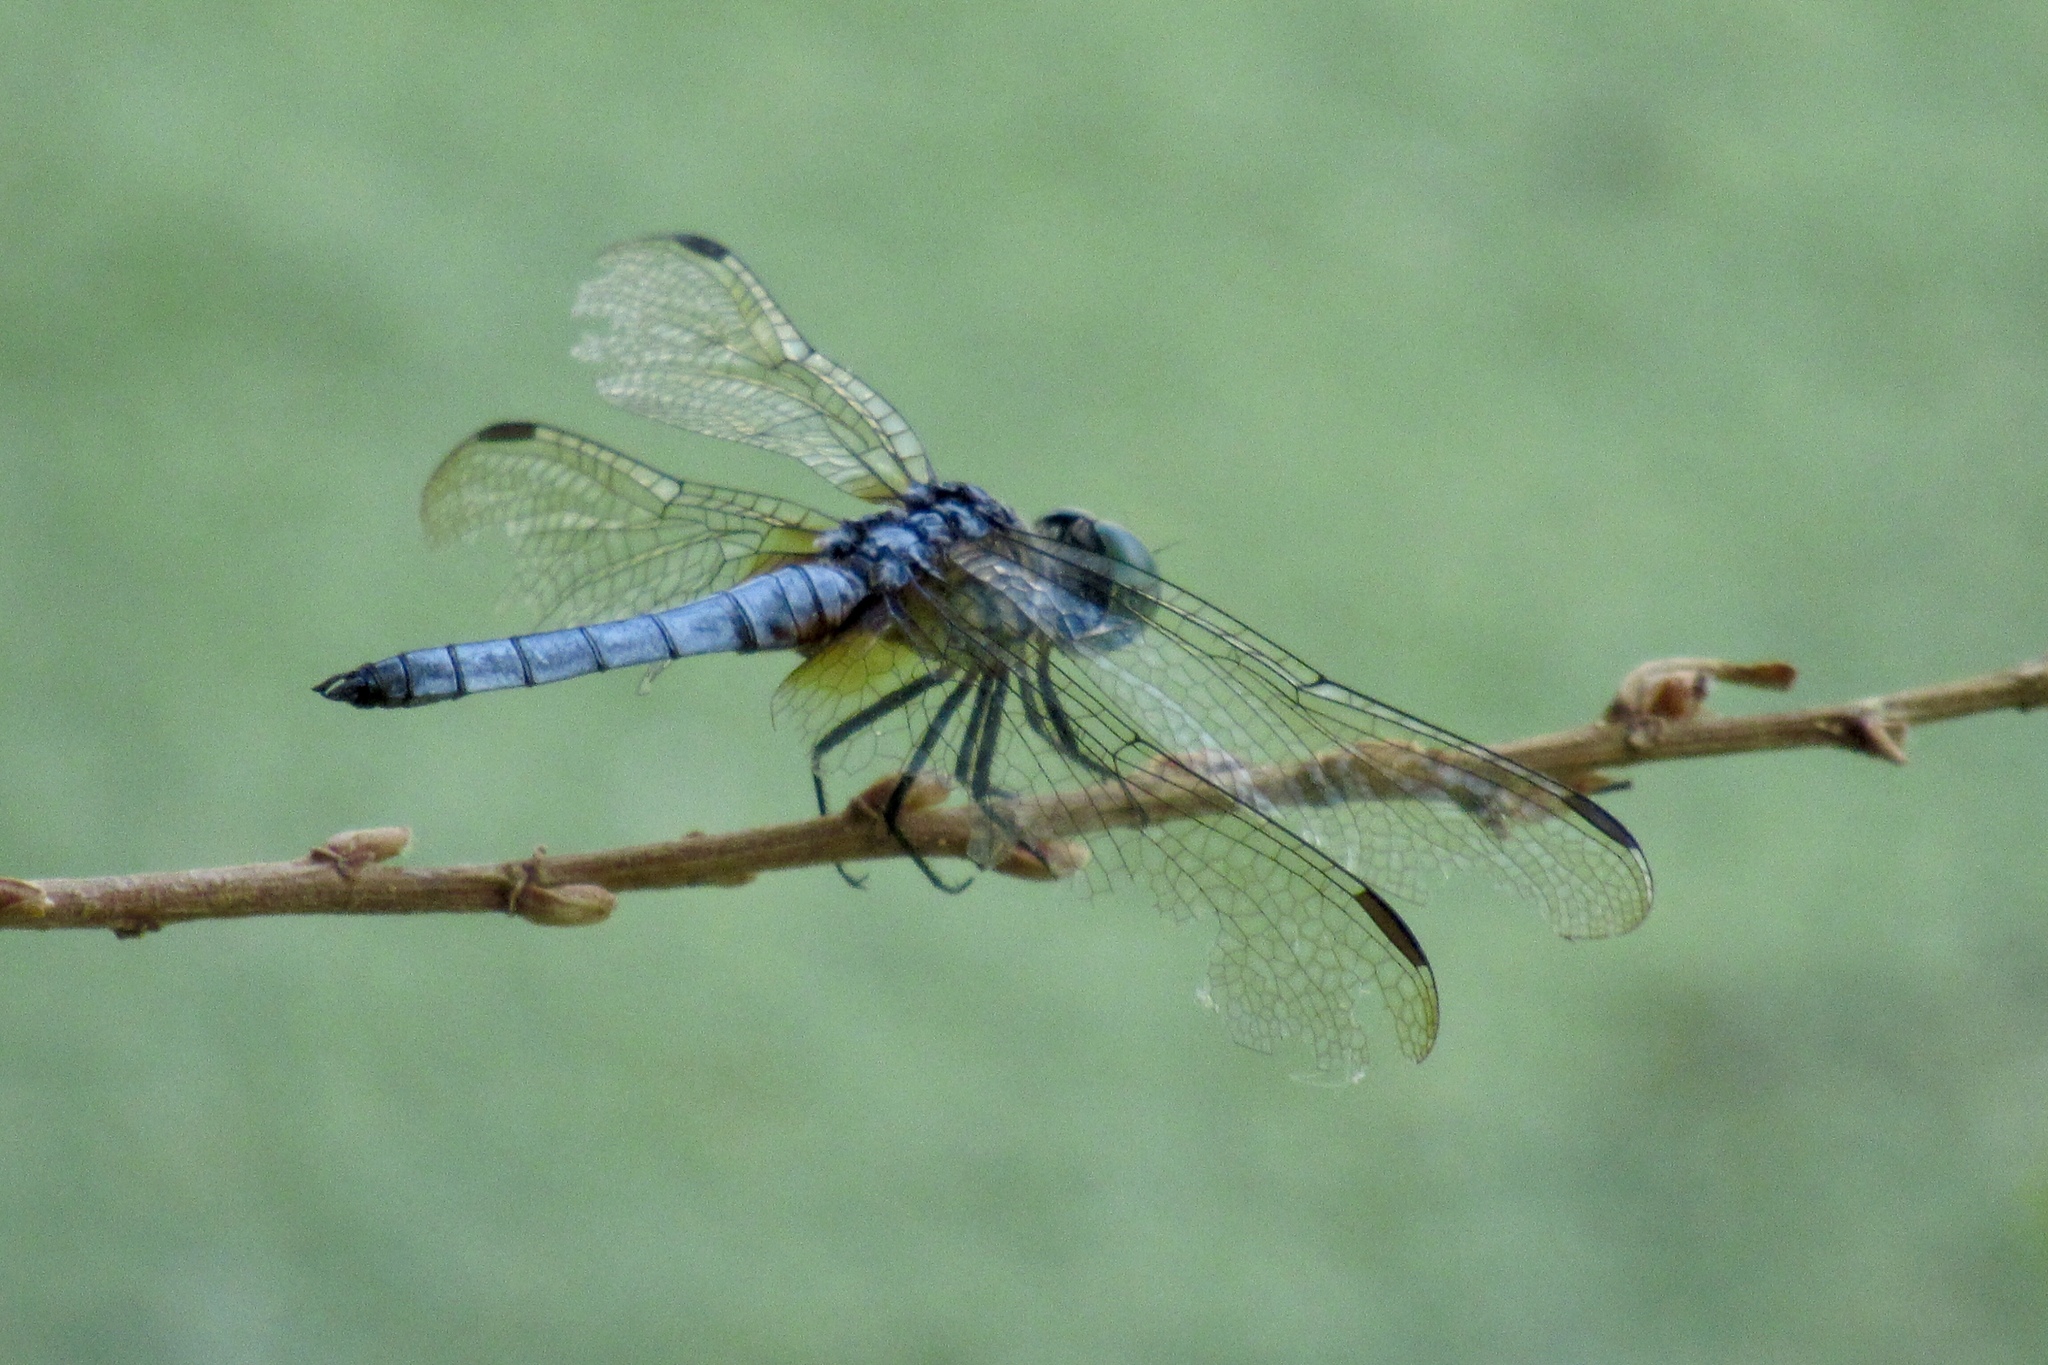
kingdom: Animalia
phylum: Arthropoda
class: Insecta
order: Odonata
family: Libellulidae
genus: Pachydiplax
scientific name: Pachydiplax longipennis
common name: Blue dasher
